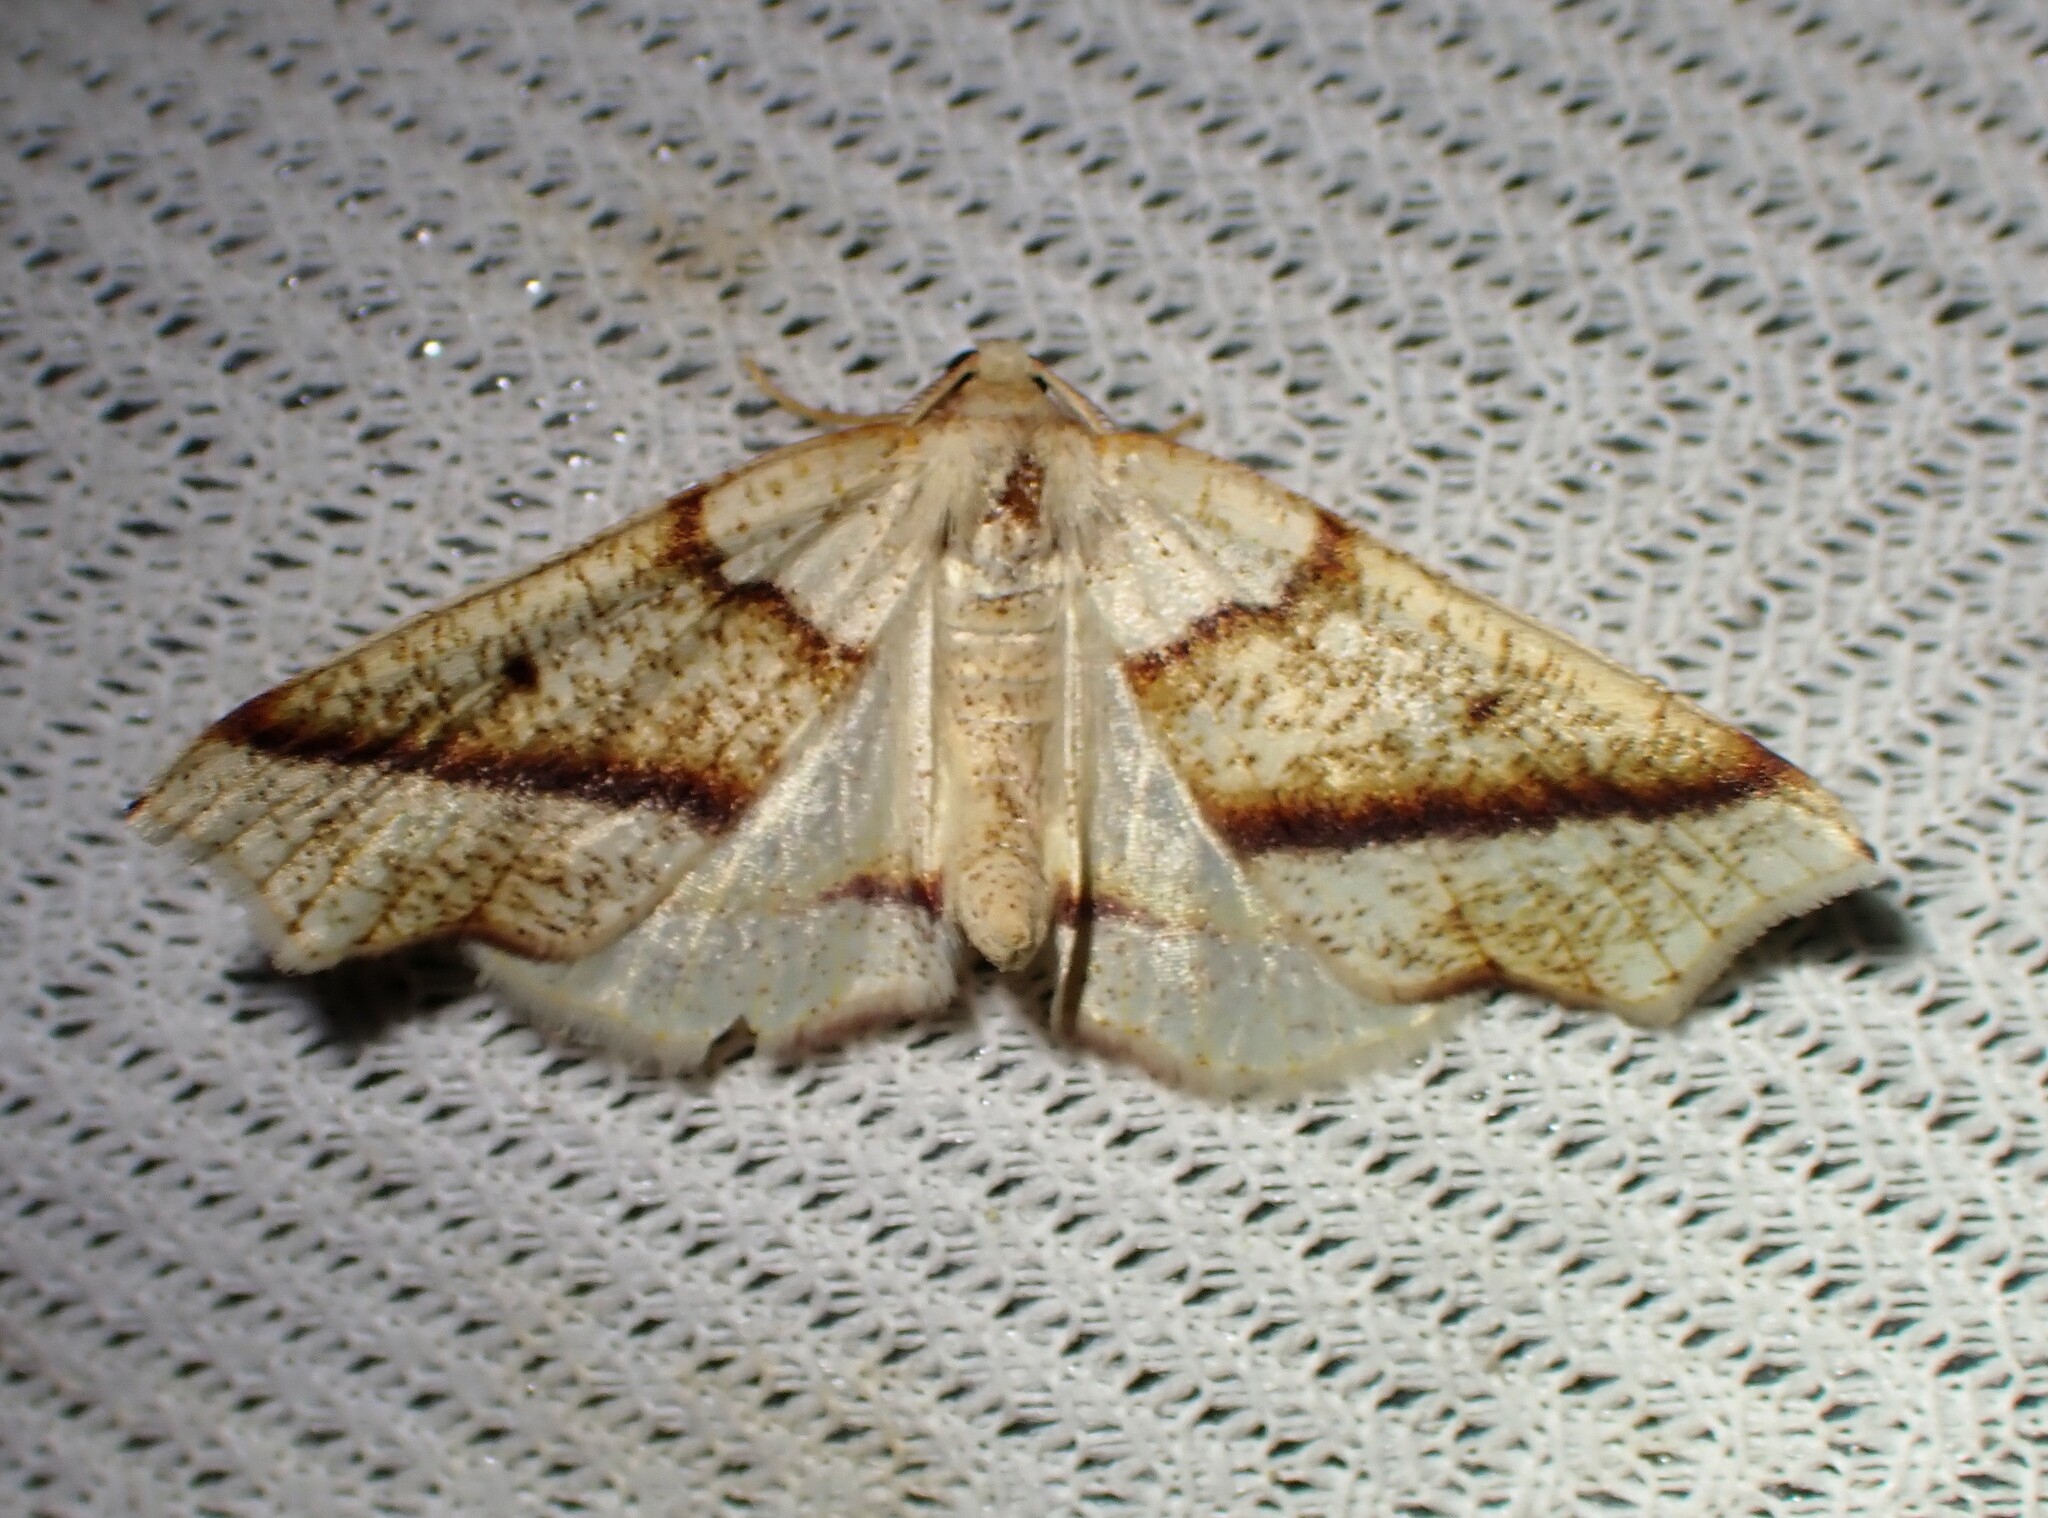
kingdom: Animalia
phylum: Arthropoda
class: Insecta
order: Lepidoptera
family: Geometridae
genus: Plagodis
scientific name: Plagodis alcoolaria
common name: Hollow-spotted plagodis
